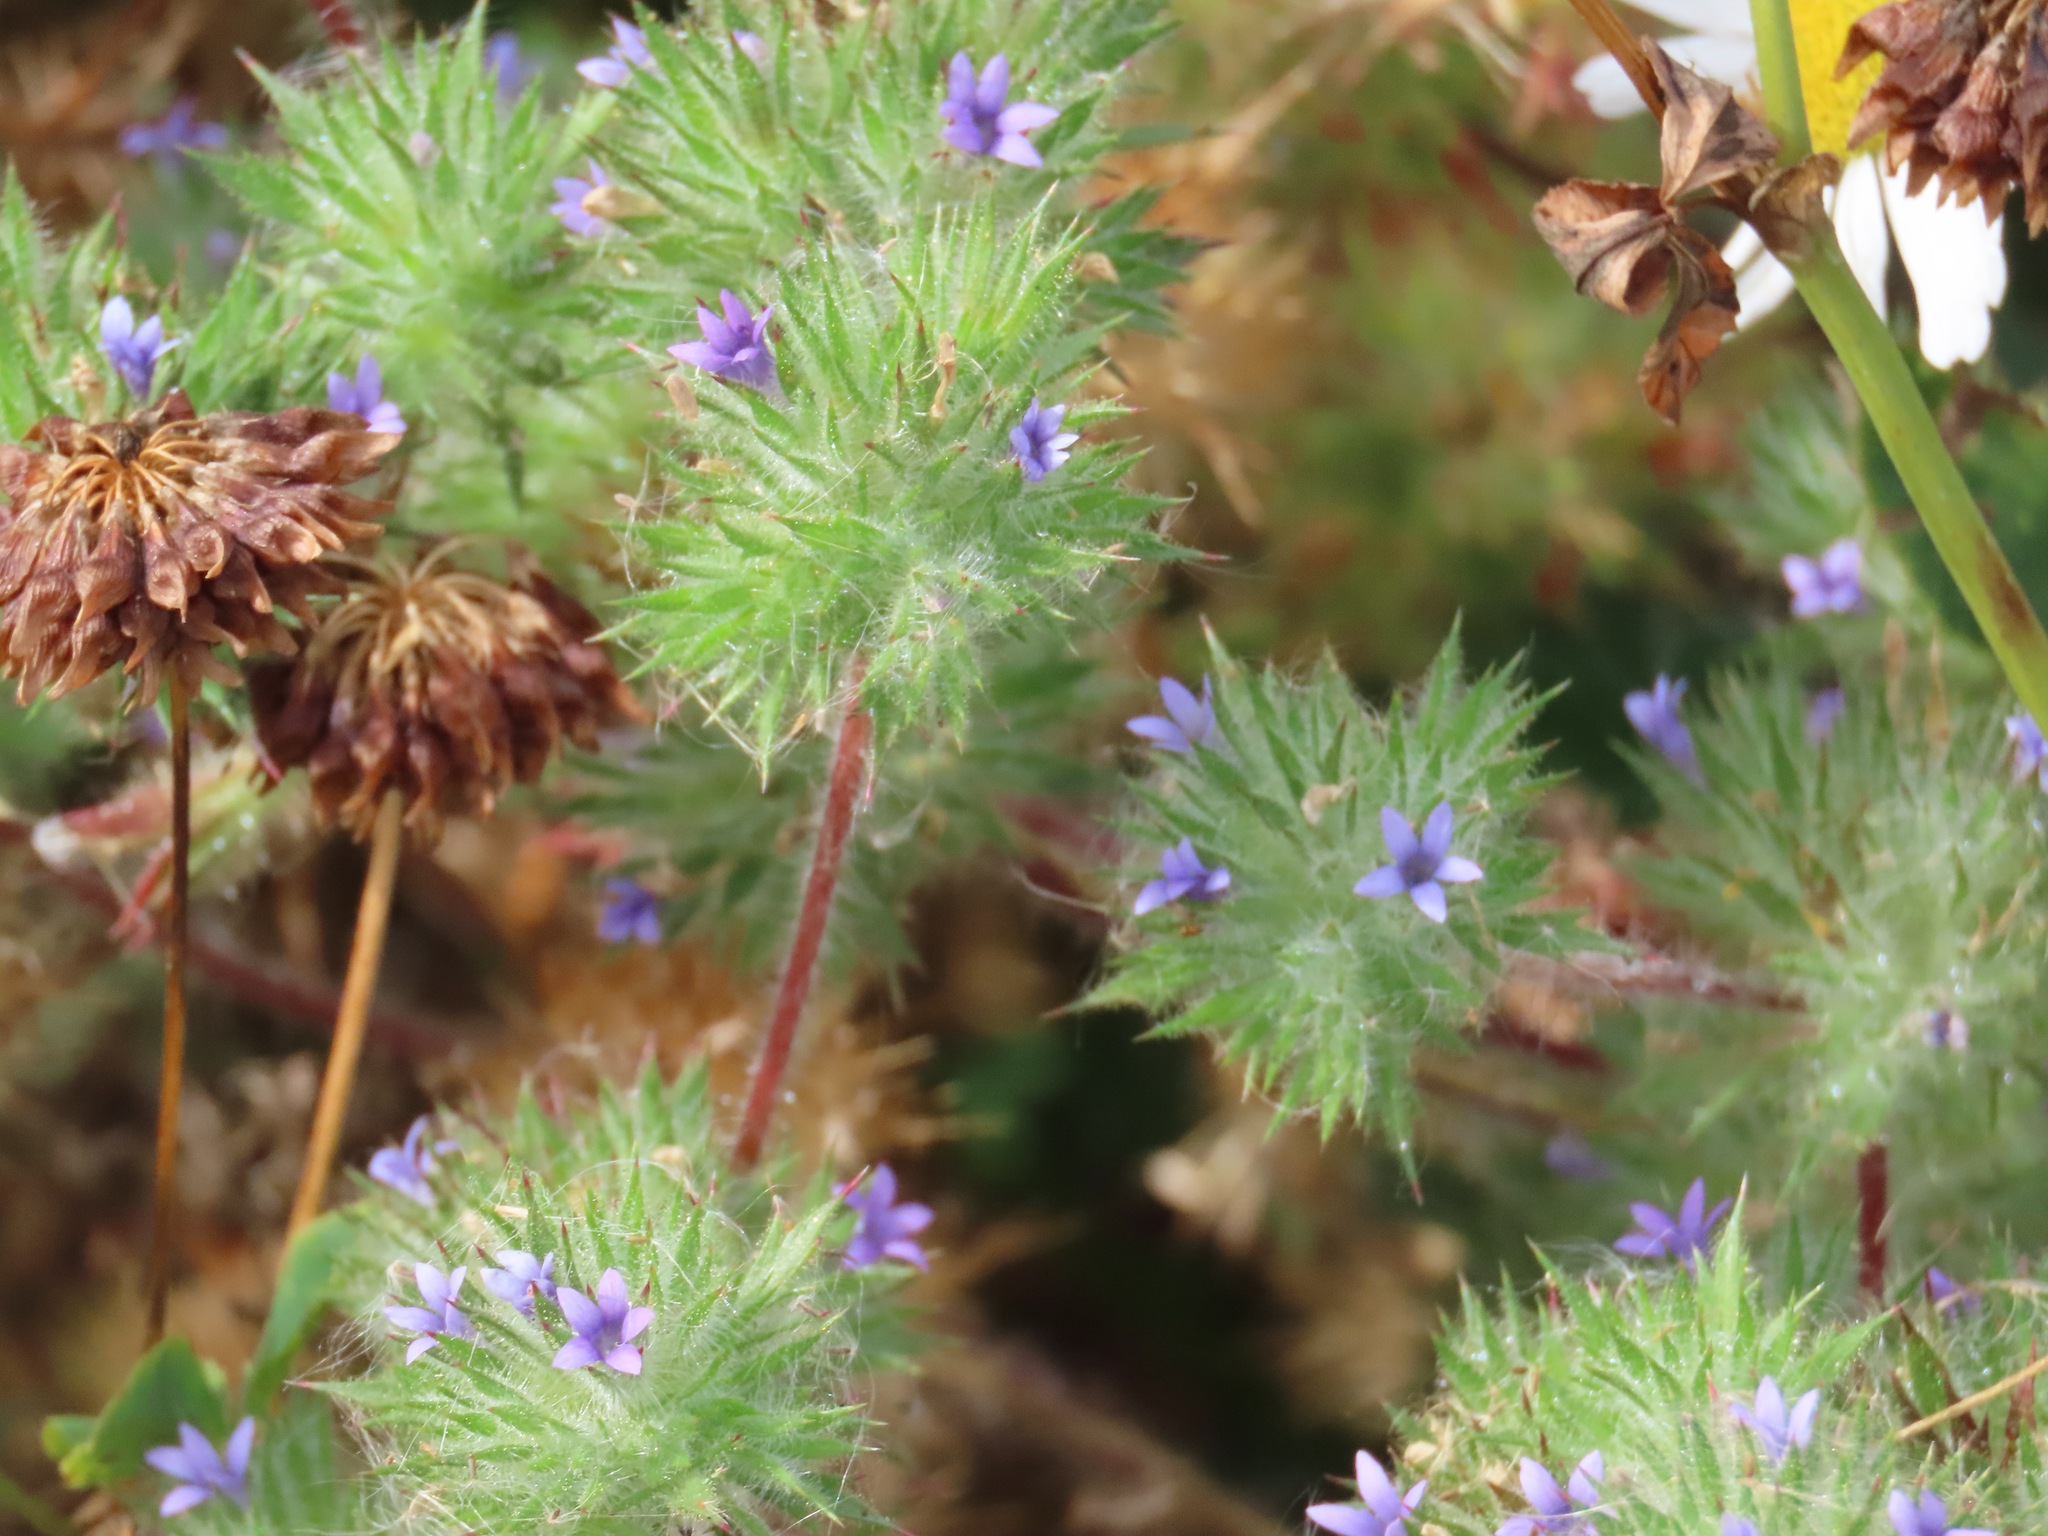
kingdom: Plantae
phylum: Tracheophyta
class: Magnoliopsida
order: Ericales
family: Polemoniaceae
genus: Navarretia
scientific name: Navarretia squarrosa
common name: Skunkweed
